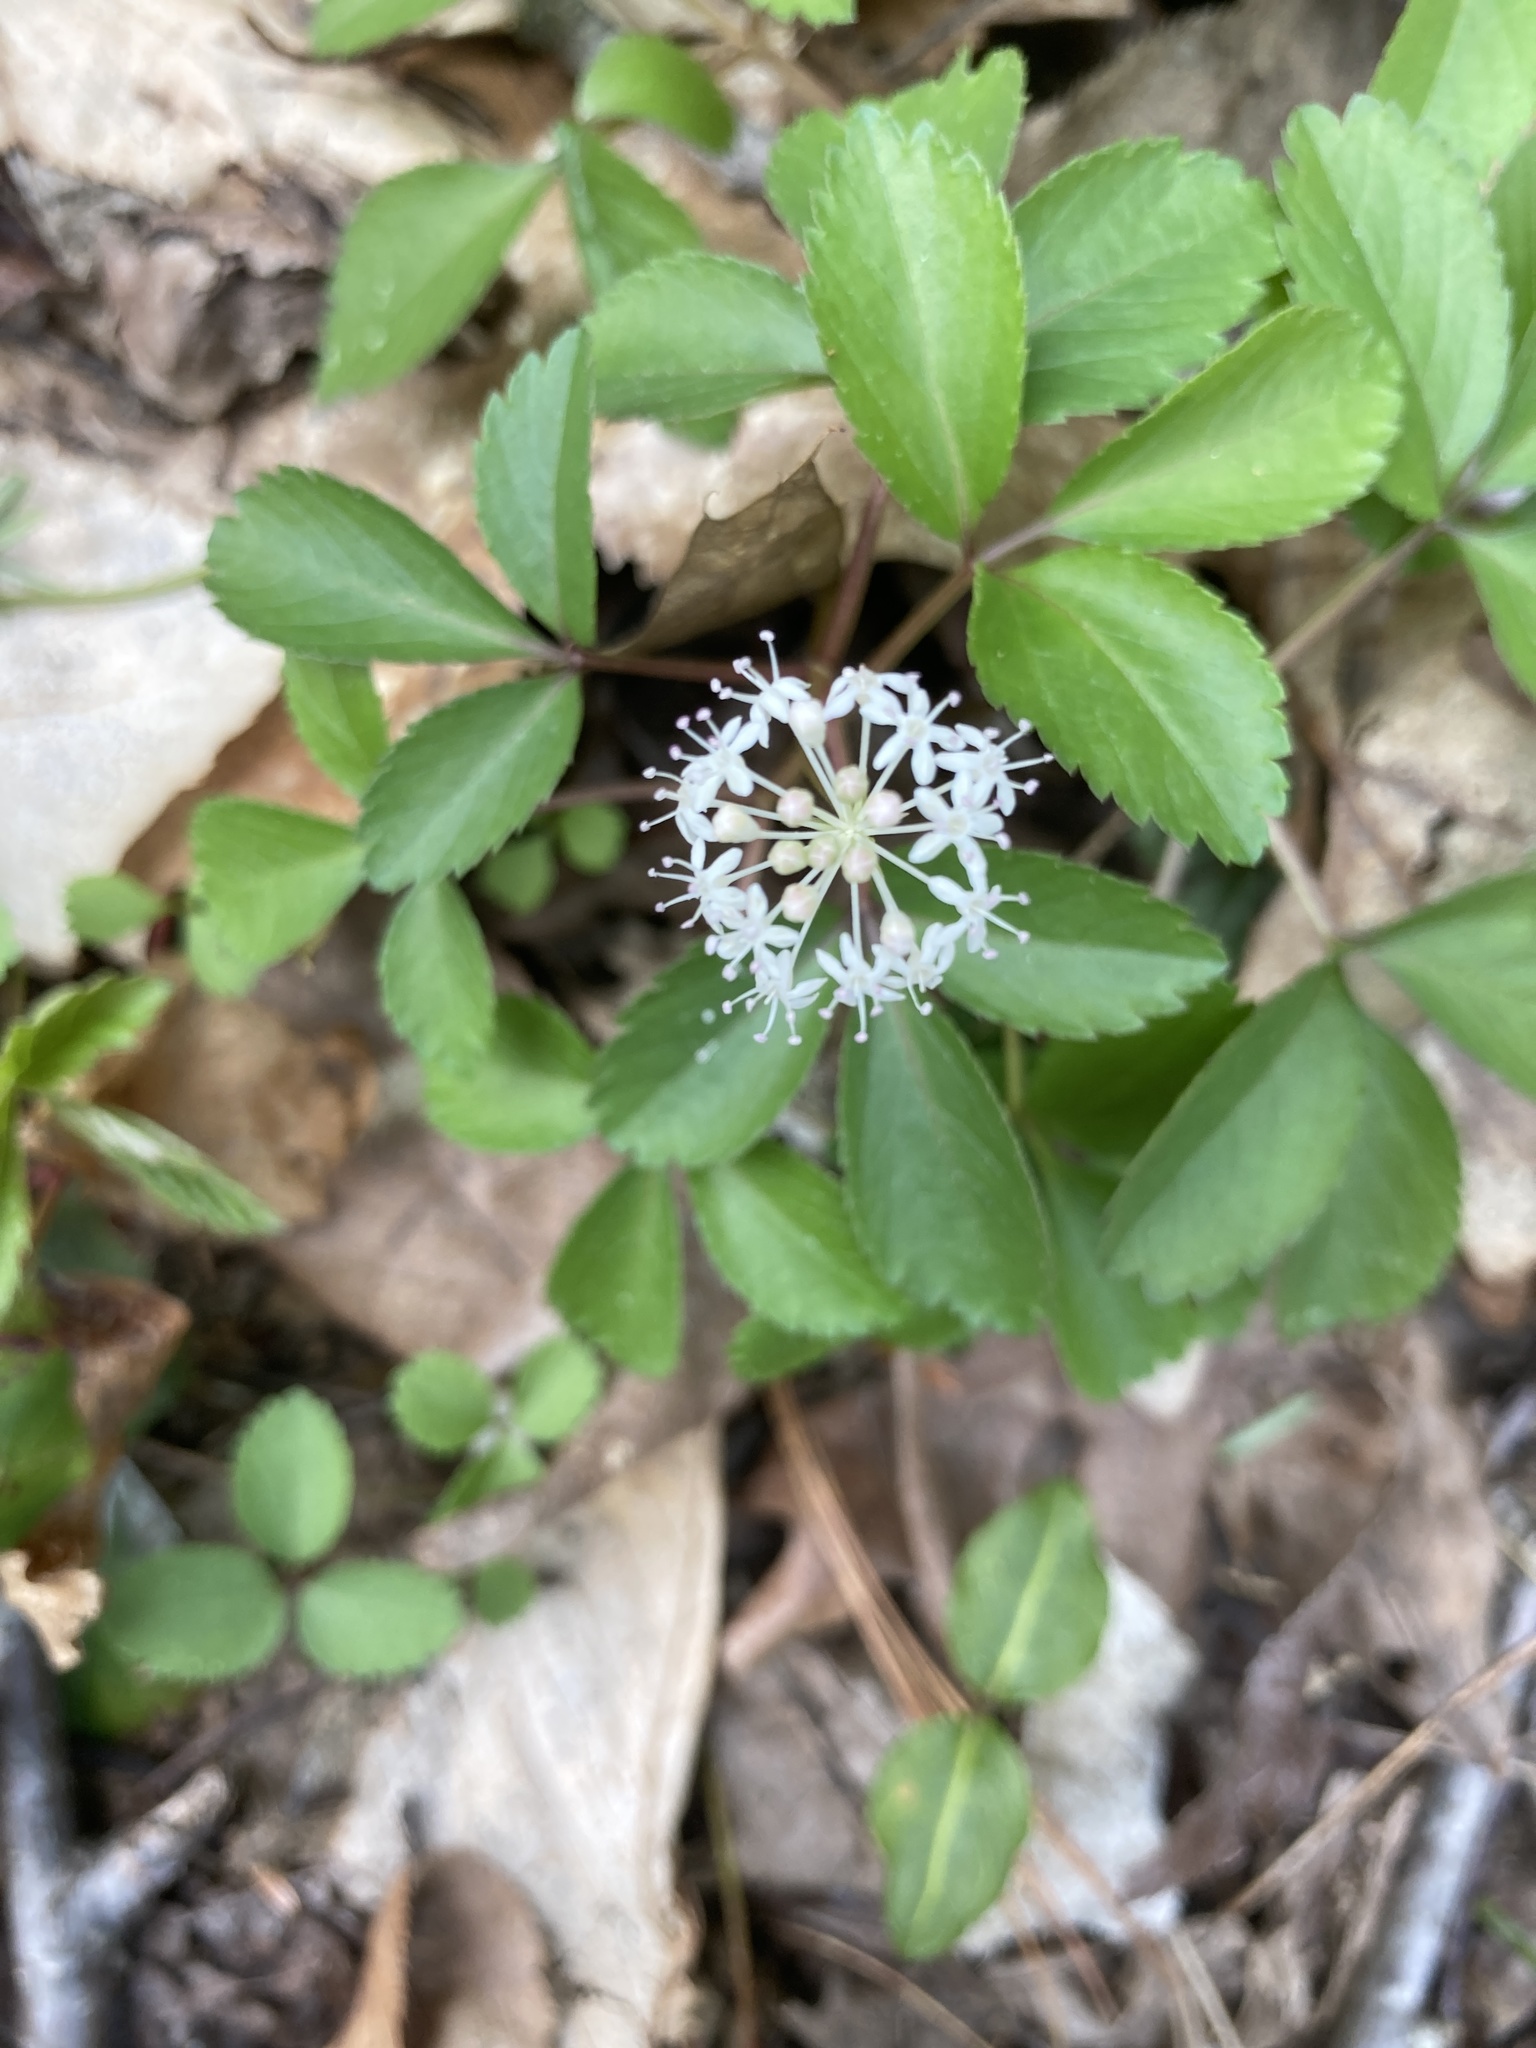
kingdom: Plantae
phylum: Tracheophyta
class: Magnoliopsida
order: Apiales
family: Araliaceae
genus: Panax
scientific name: Panax trifolius
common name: Dwarf ginseng
